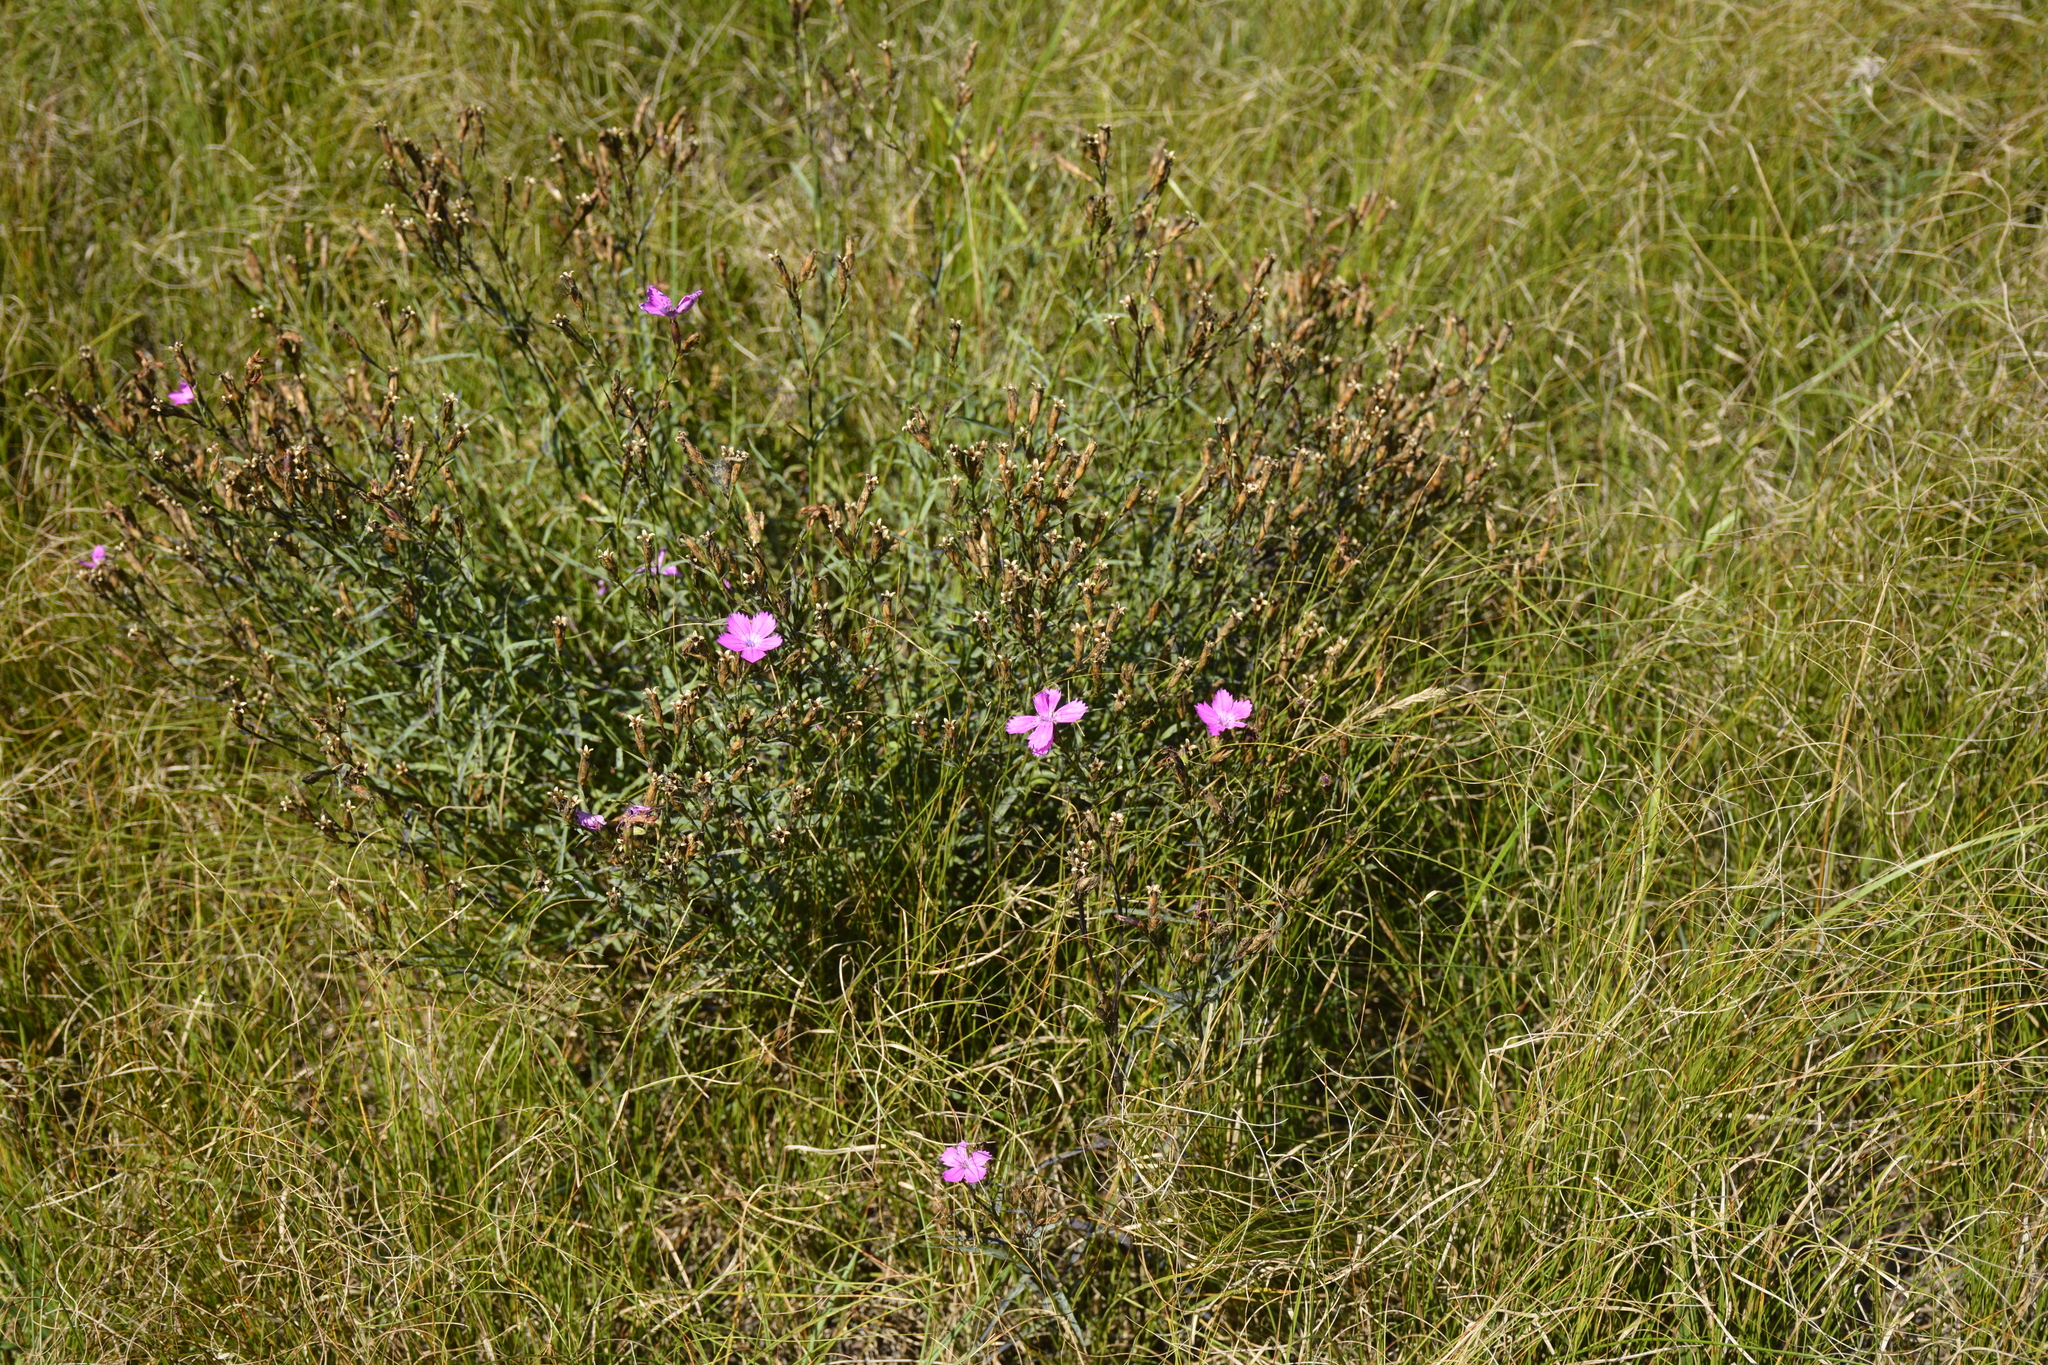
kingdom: Plantae
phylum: Tracheophyta
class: Magnoliopsida
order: Caryophyllales
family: Caryophyllaceae
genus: Dianthus
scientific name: Dianthus chinensis
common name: Rainbow pink
